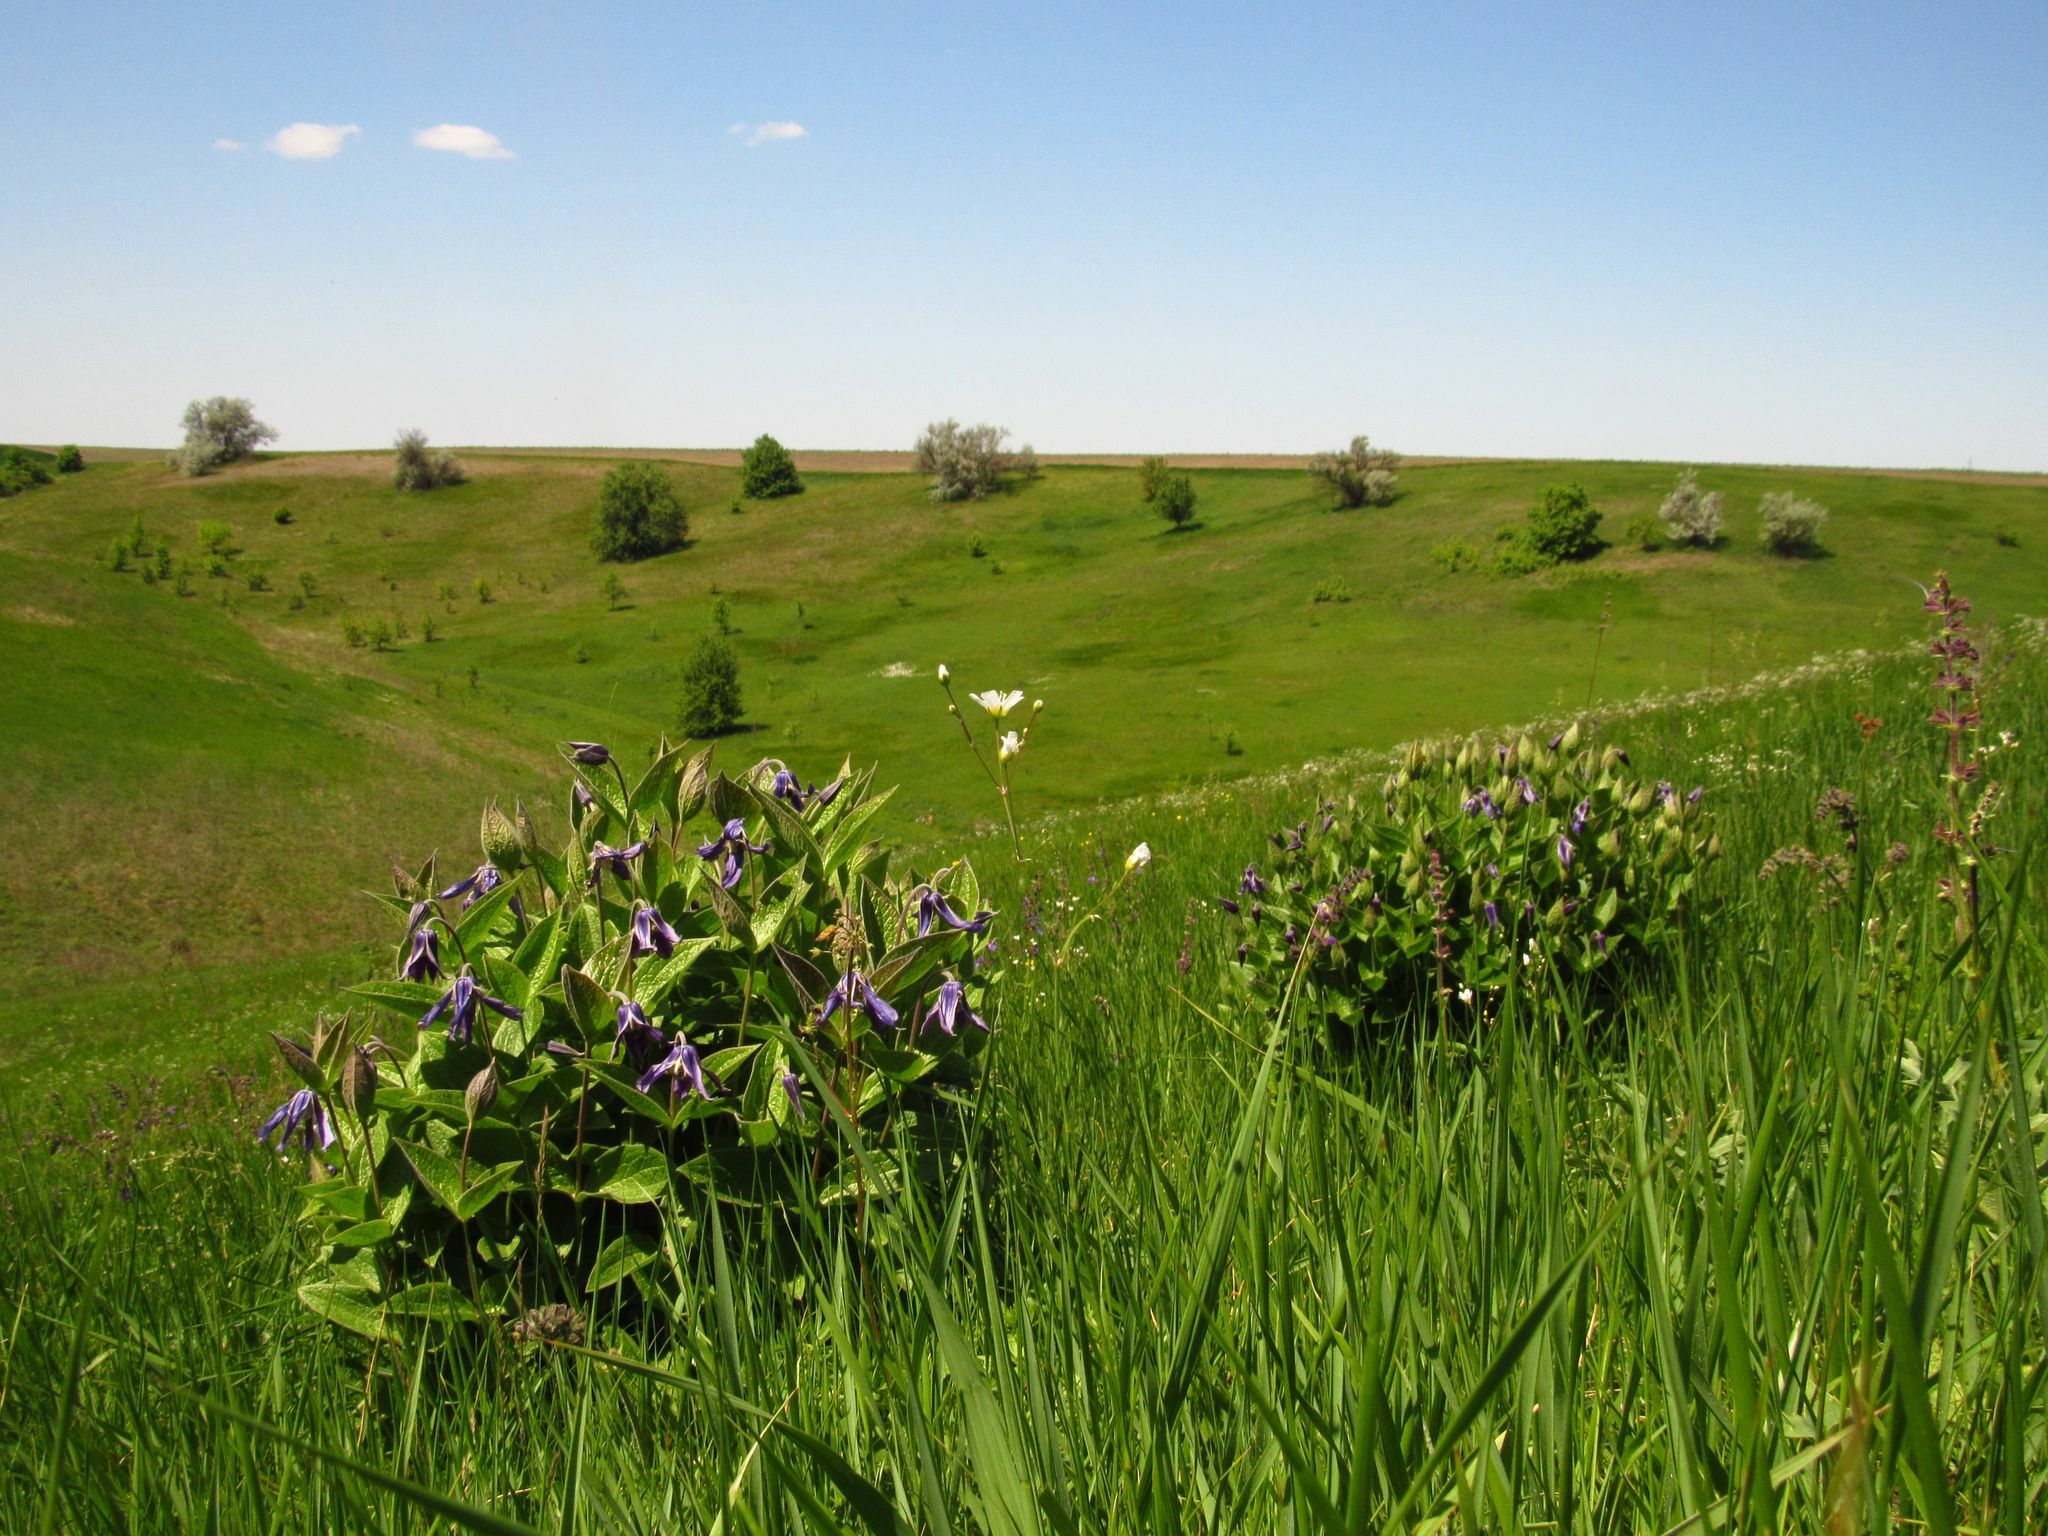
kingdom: Plantae
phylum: Tracheophyta
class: Magnoliopsida
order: Ranunculales
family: Ranunculaceae
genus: Clematis
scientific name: Clematis integrifolia
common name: Solitary clematis
